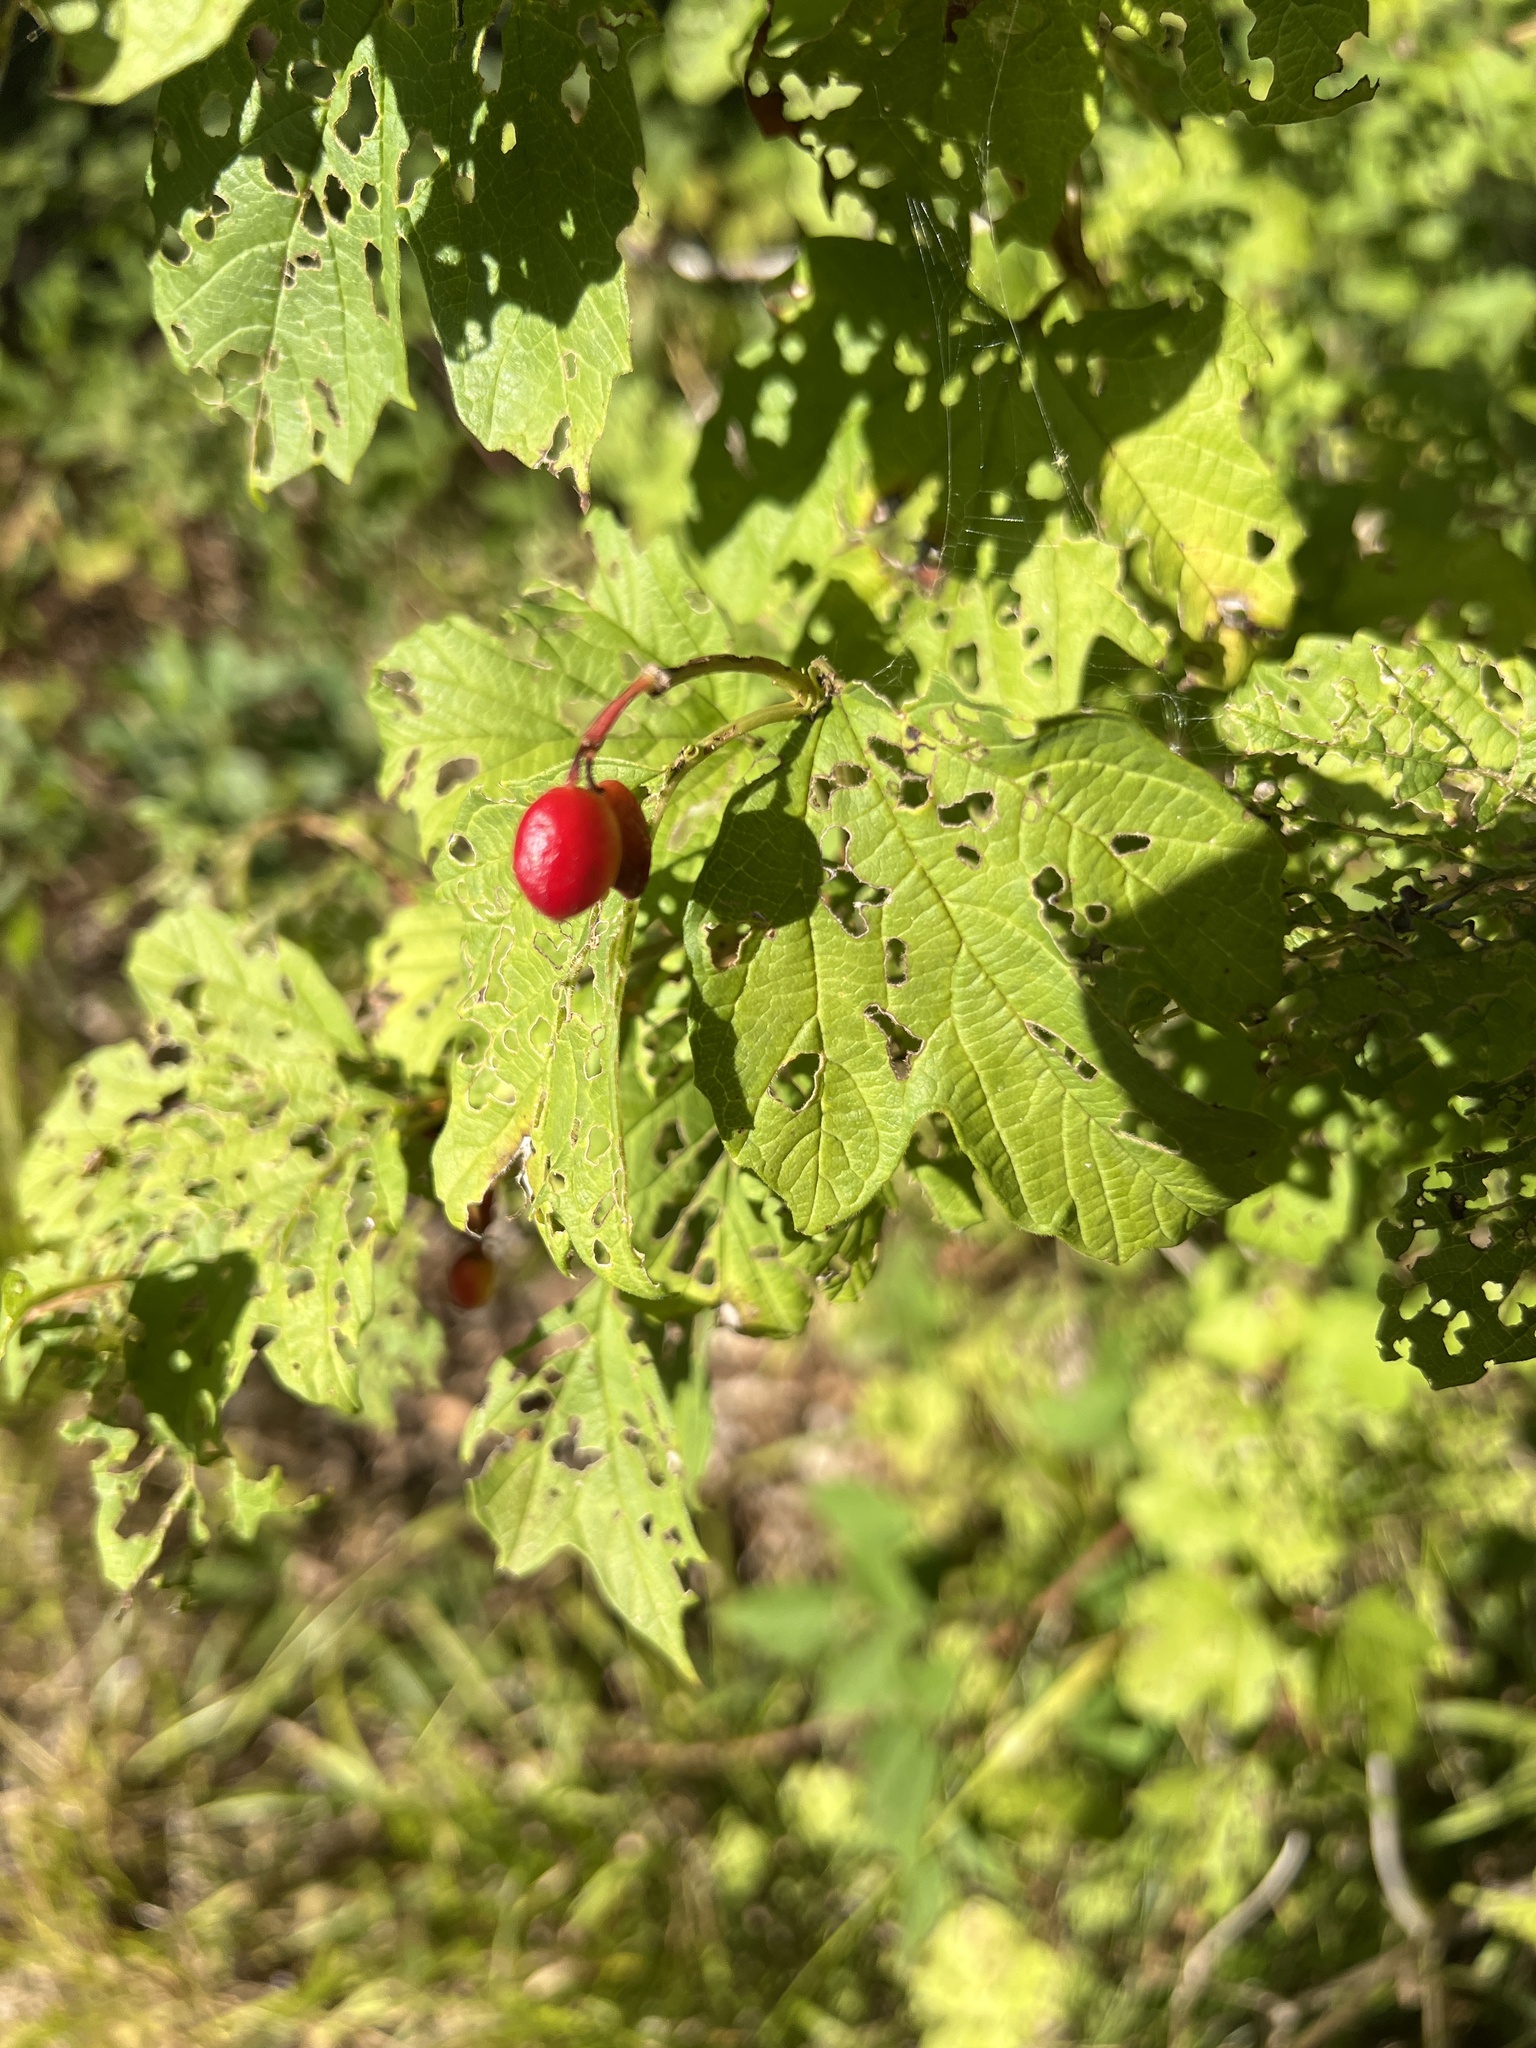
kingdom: Plantae
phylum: Tracheophyta
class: Magnoliopsida
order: Dipsacales
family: Viburnaceae
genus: Viburnum
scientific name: Viburnum opulus
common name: Guelder-rose
